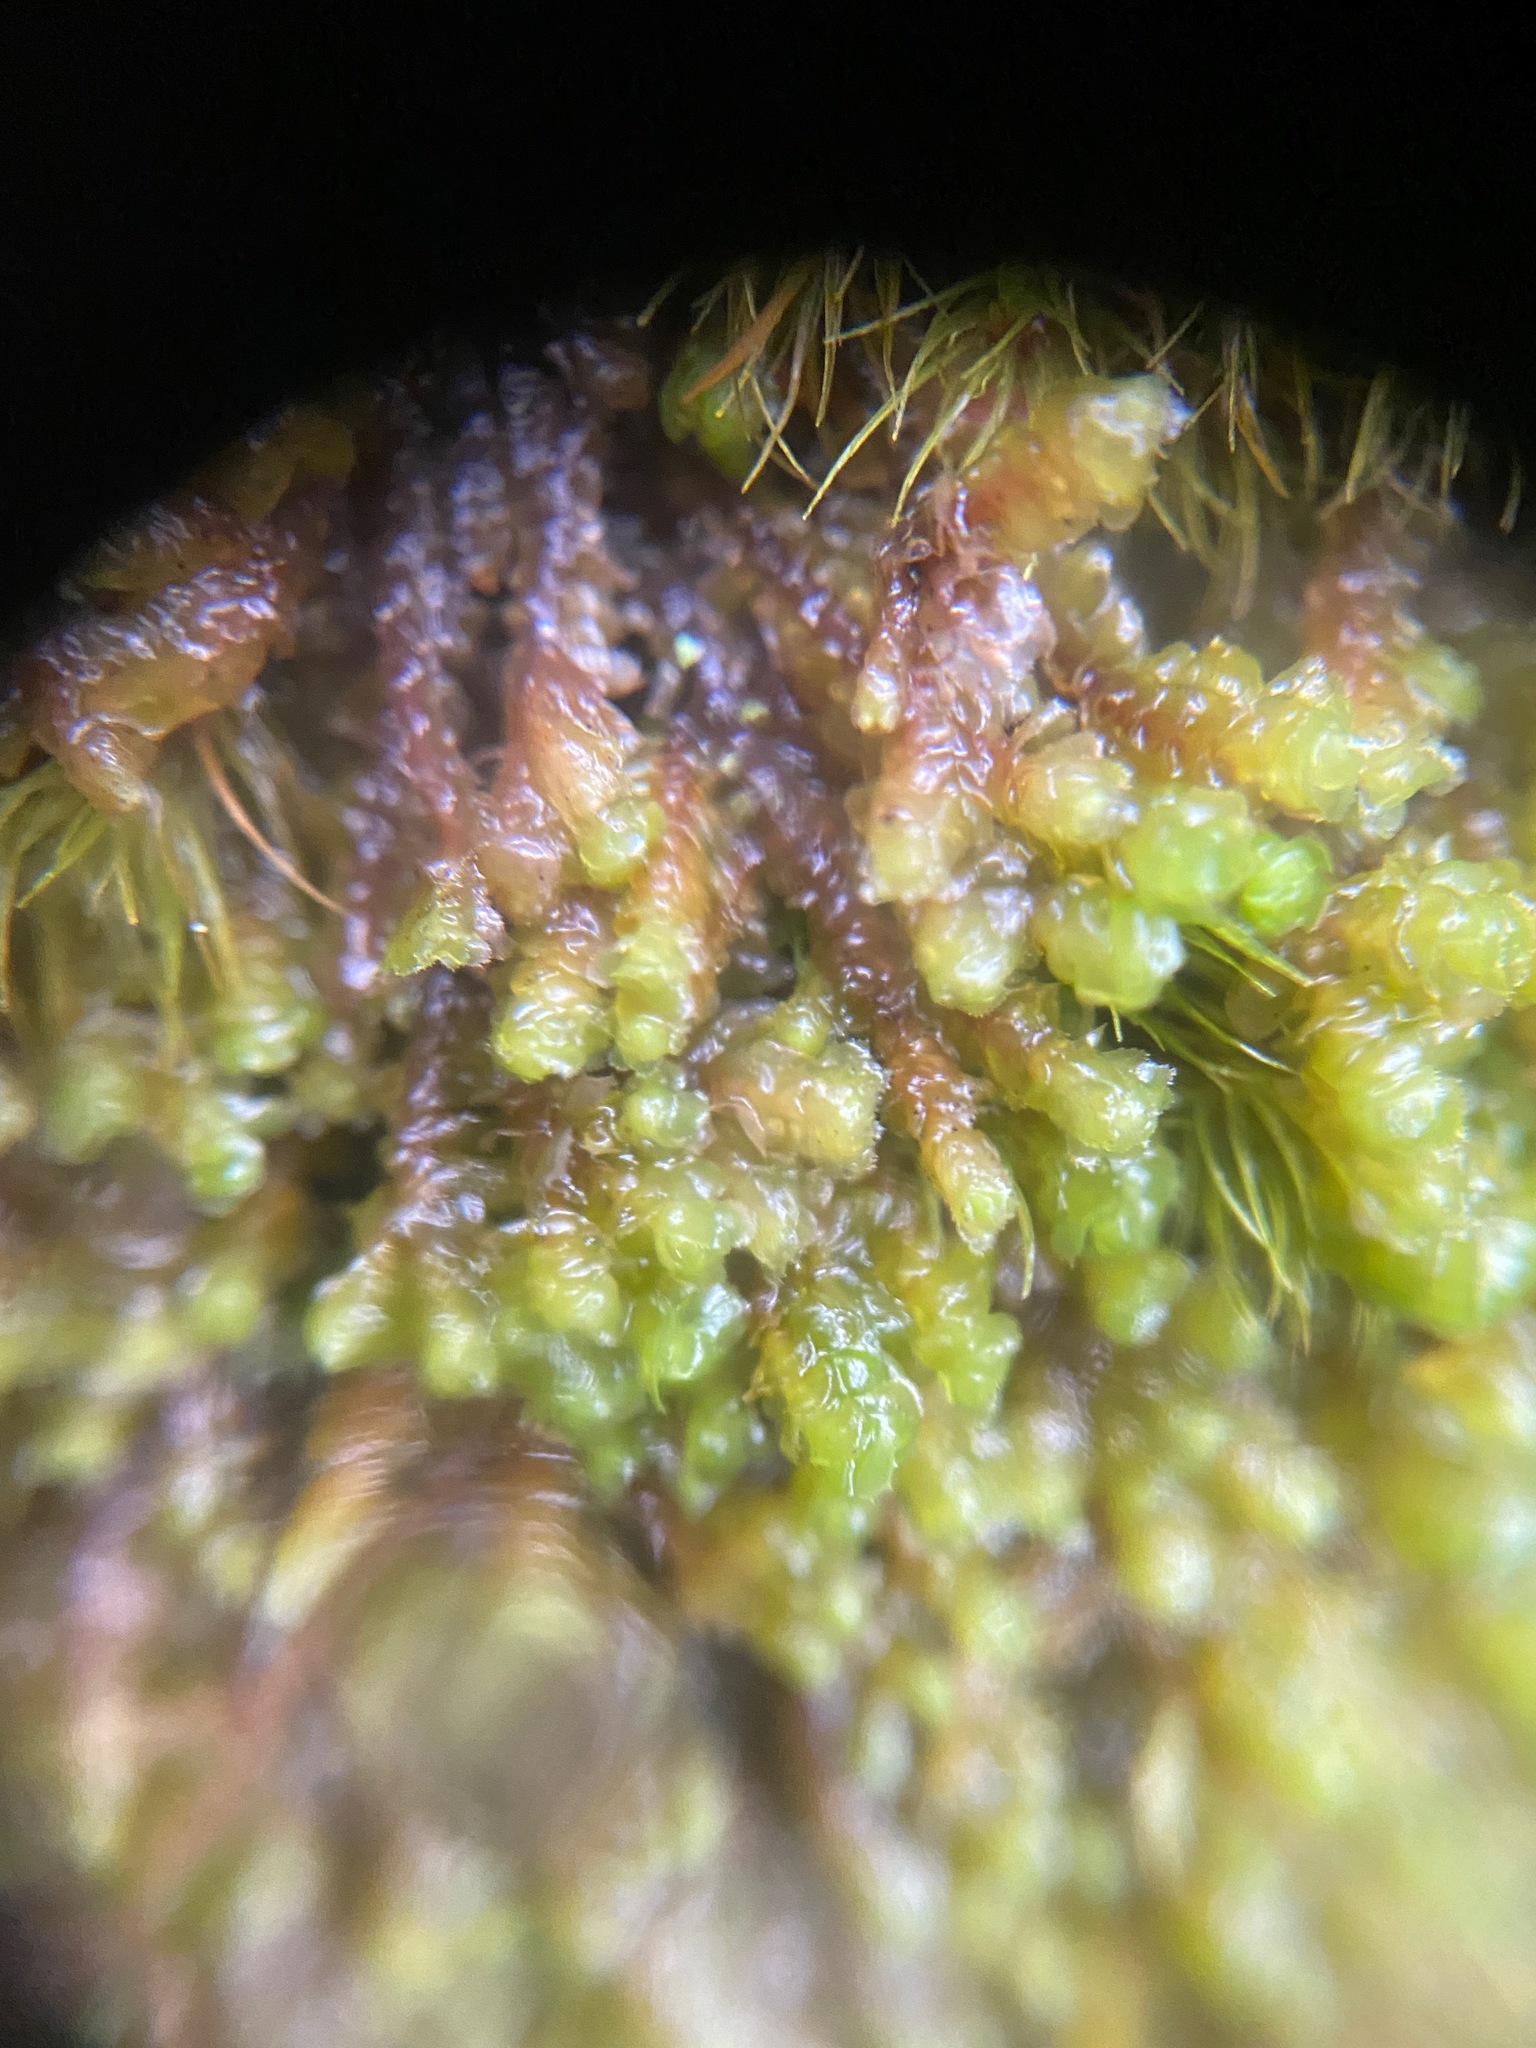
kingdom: Plantae
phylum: Marchantiophyta
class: Jungermanniopsida
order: Jungermanniales
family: Scapaniaceae
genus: Scapania
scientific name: Scapania bolanderi
